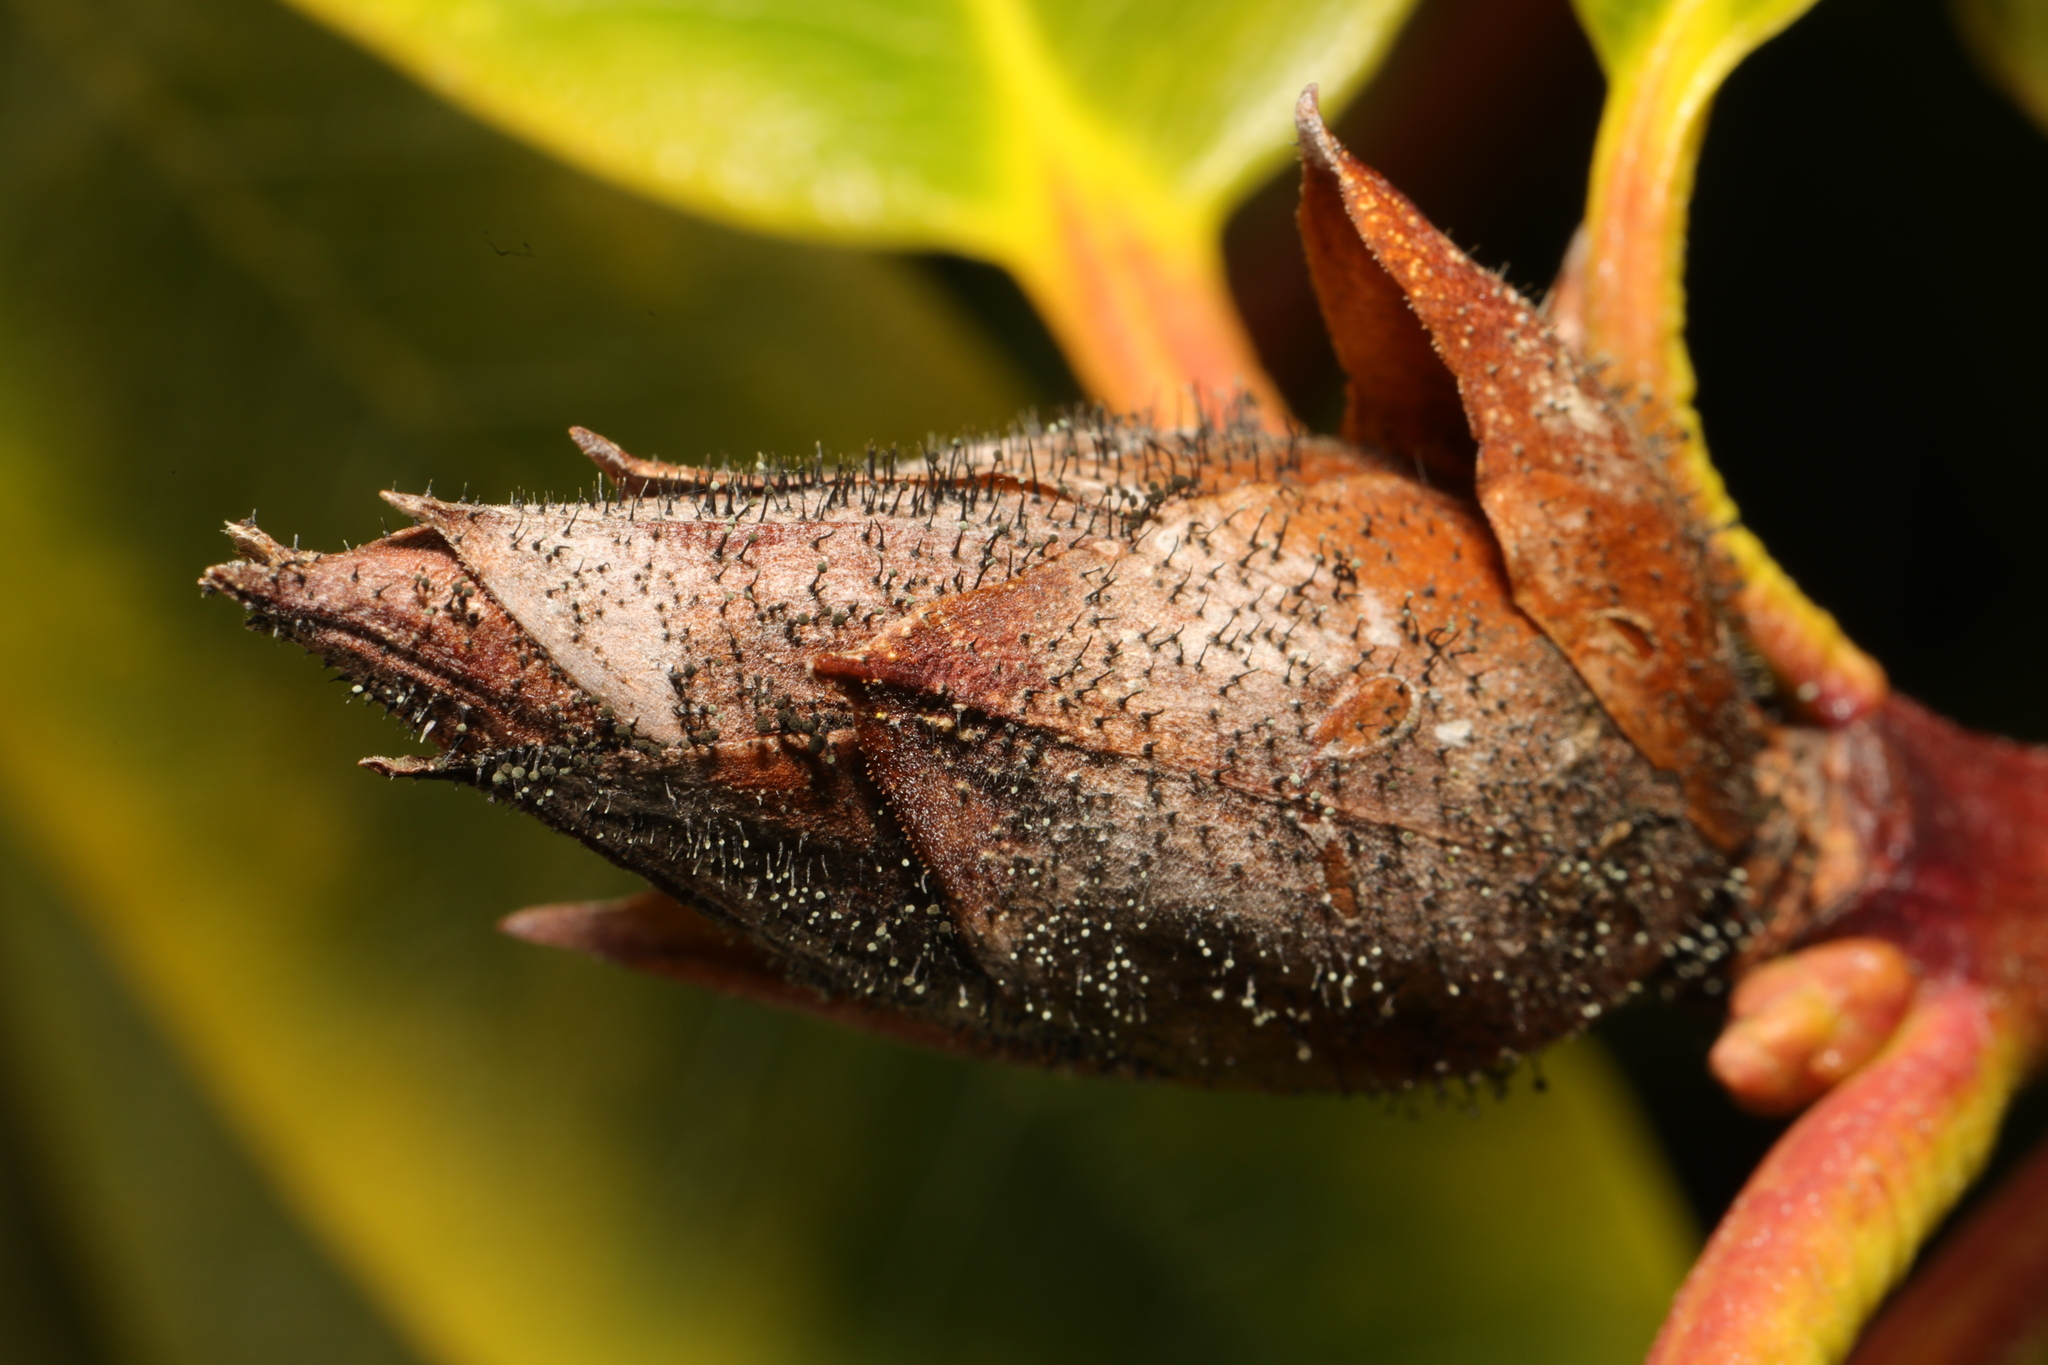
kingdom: Fungi
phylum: Ascomycota
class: Dothideomycetes
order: Pleosporales
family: Melanommataceae
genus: Seifertia
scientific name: Seifertia azaleae
